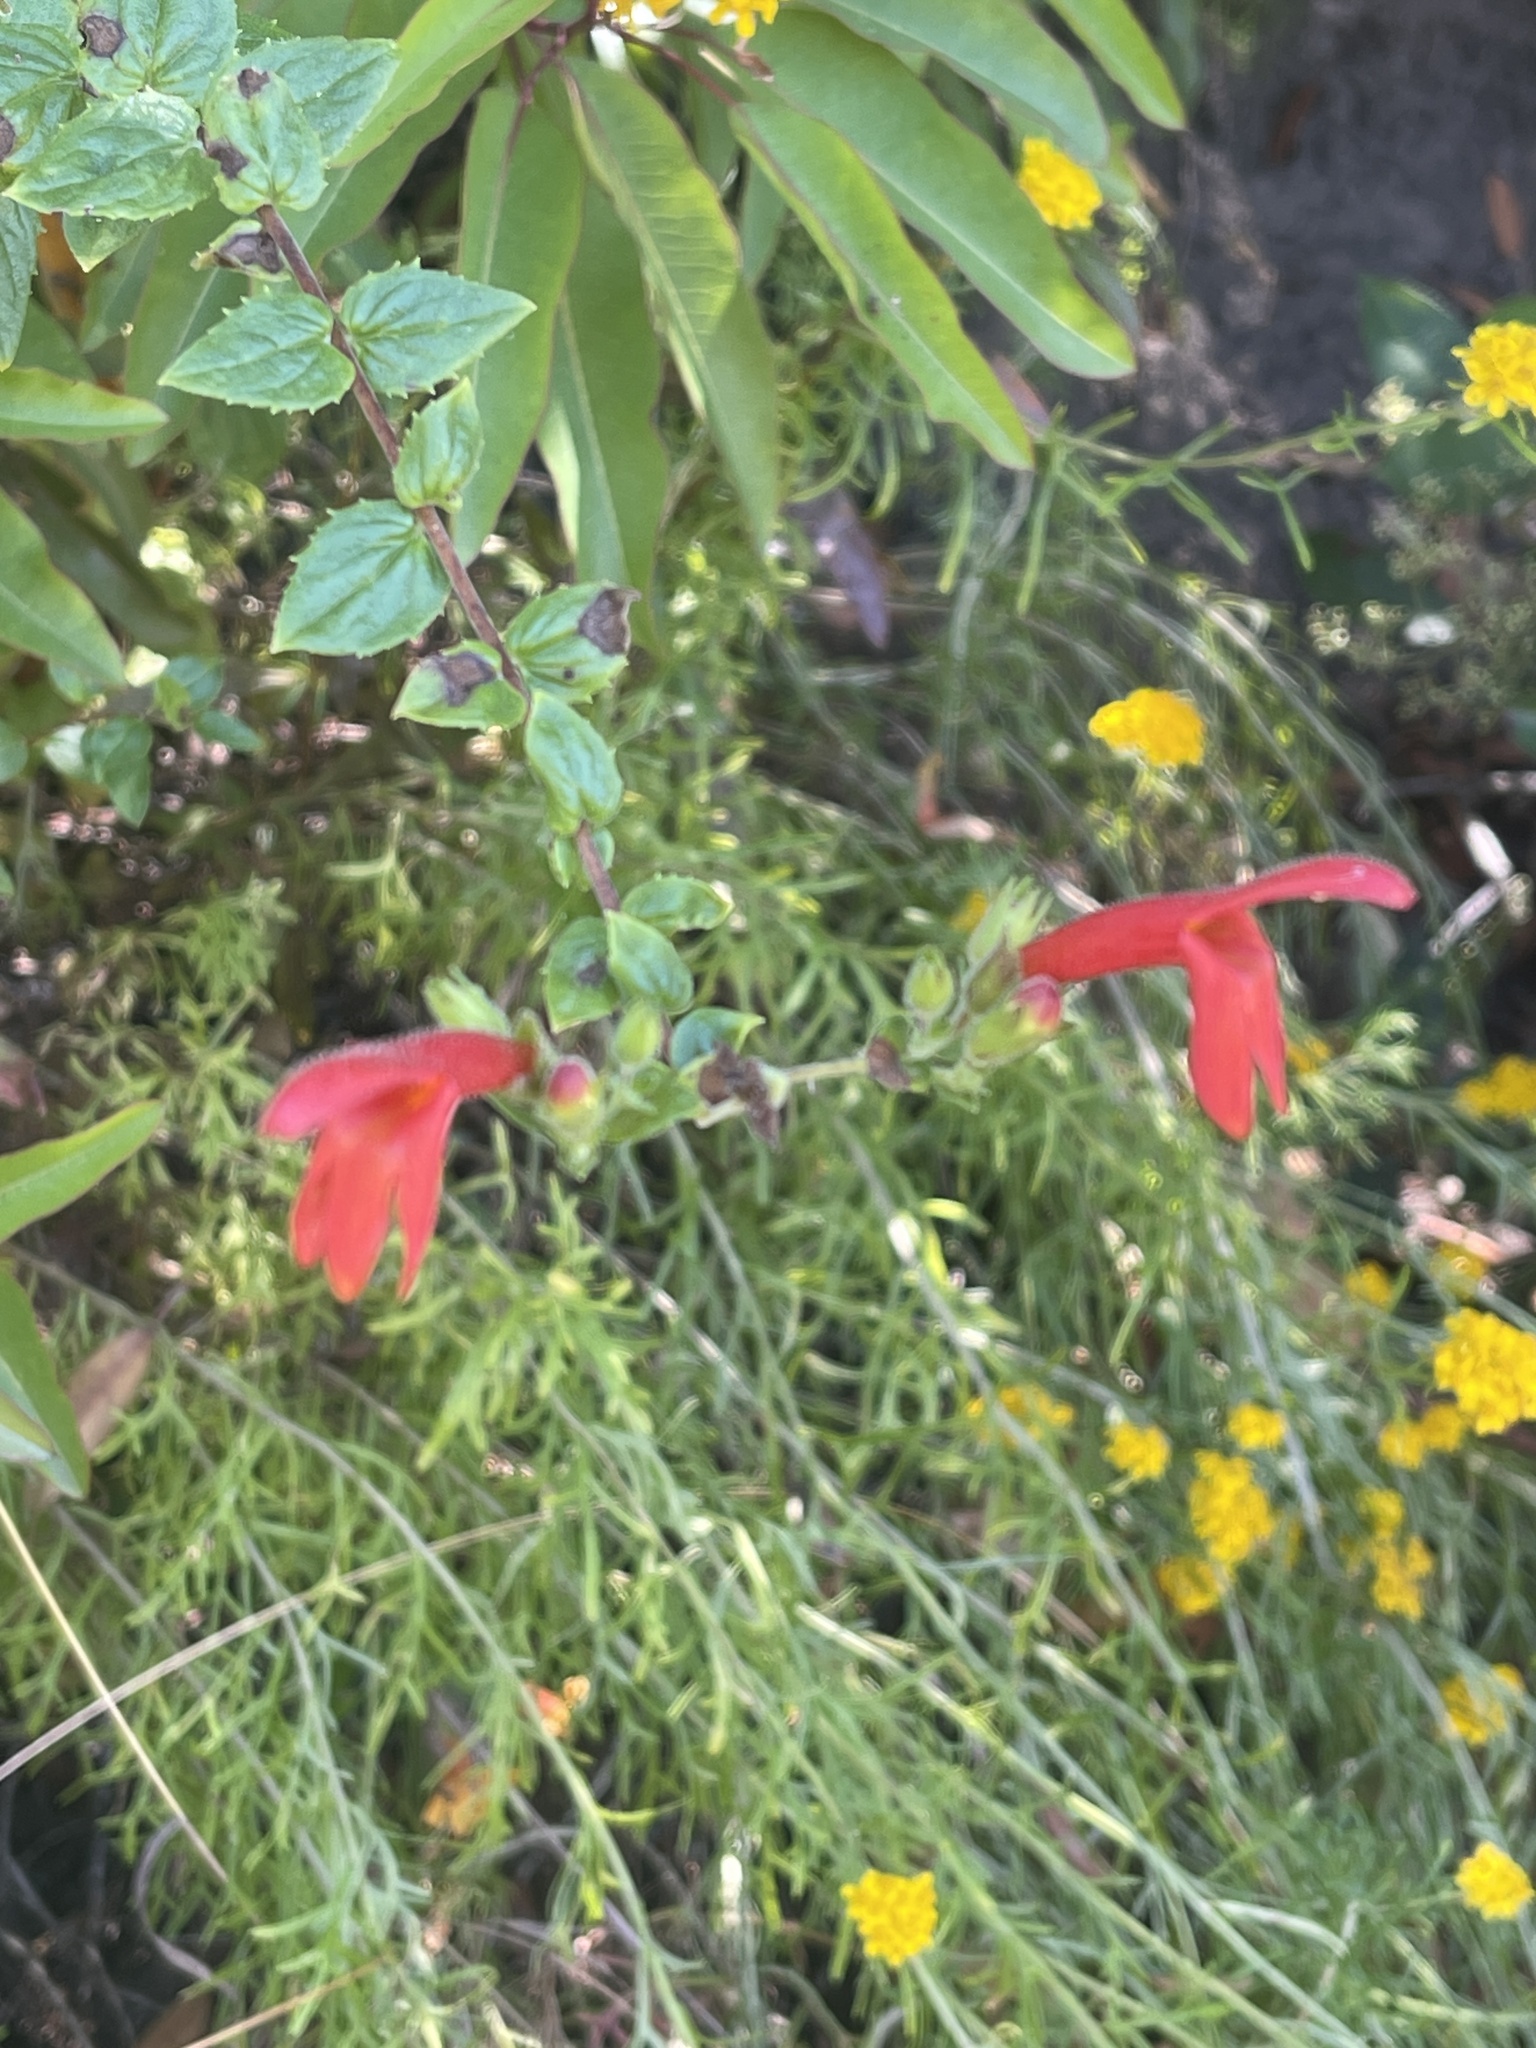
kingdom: Plantae
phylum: Tracheophyta
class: Magnoliopsida
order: Lamiales
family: Plantaginaceae
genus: Keckiella
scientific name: Keckiella cordifolia
